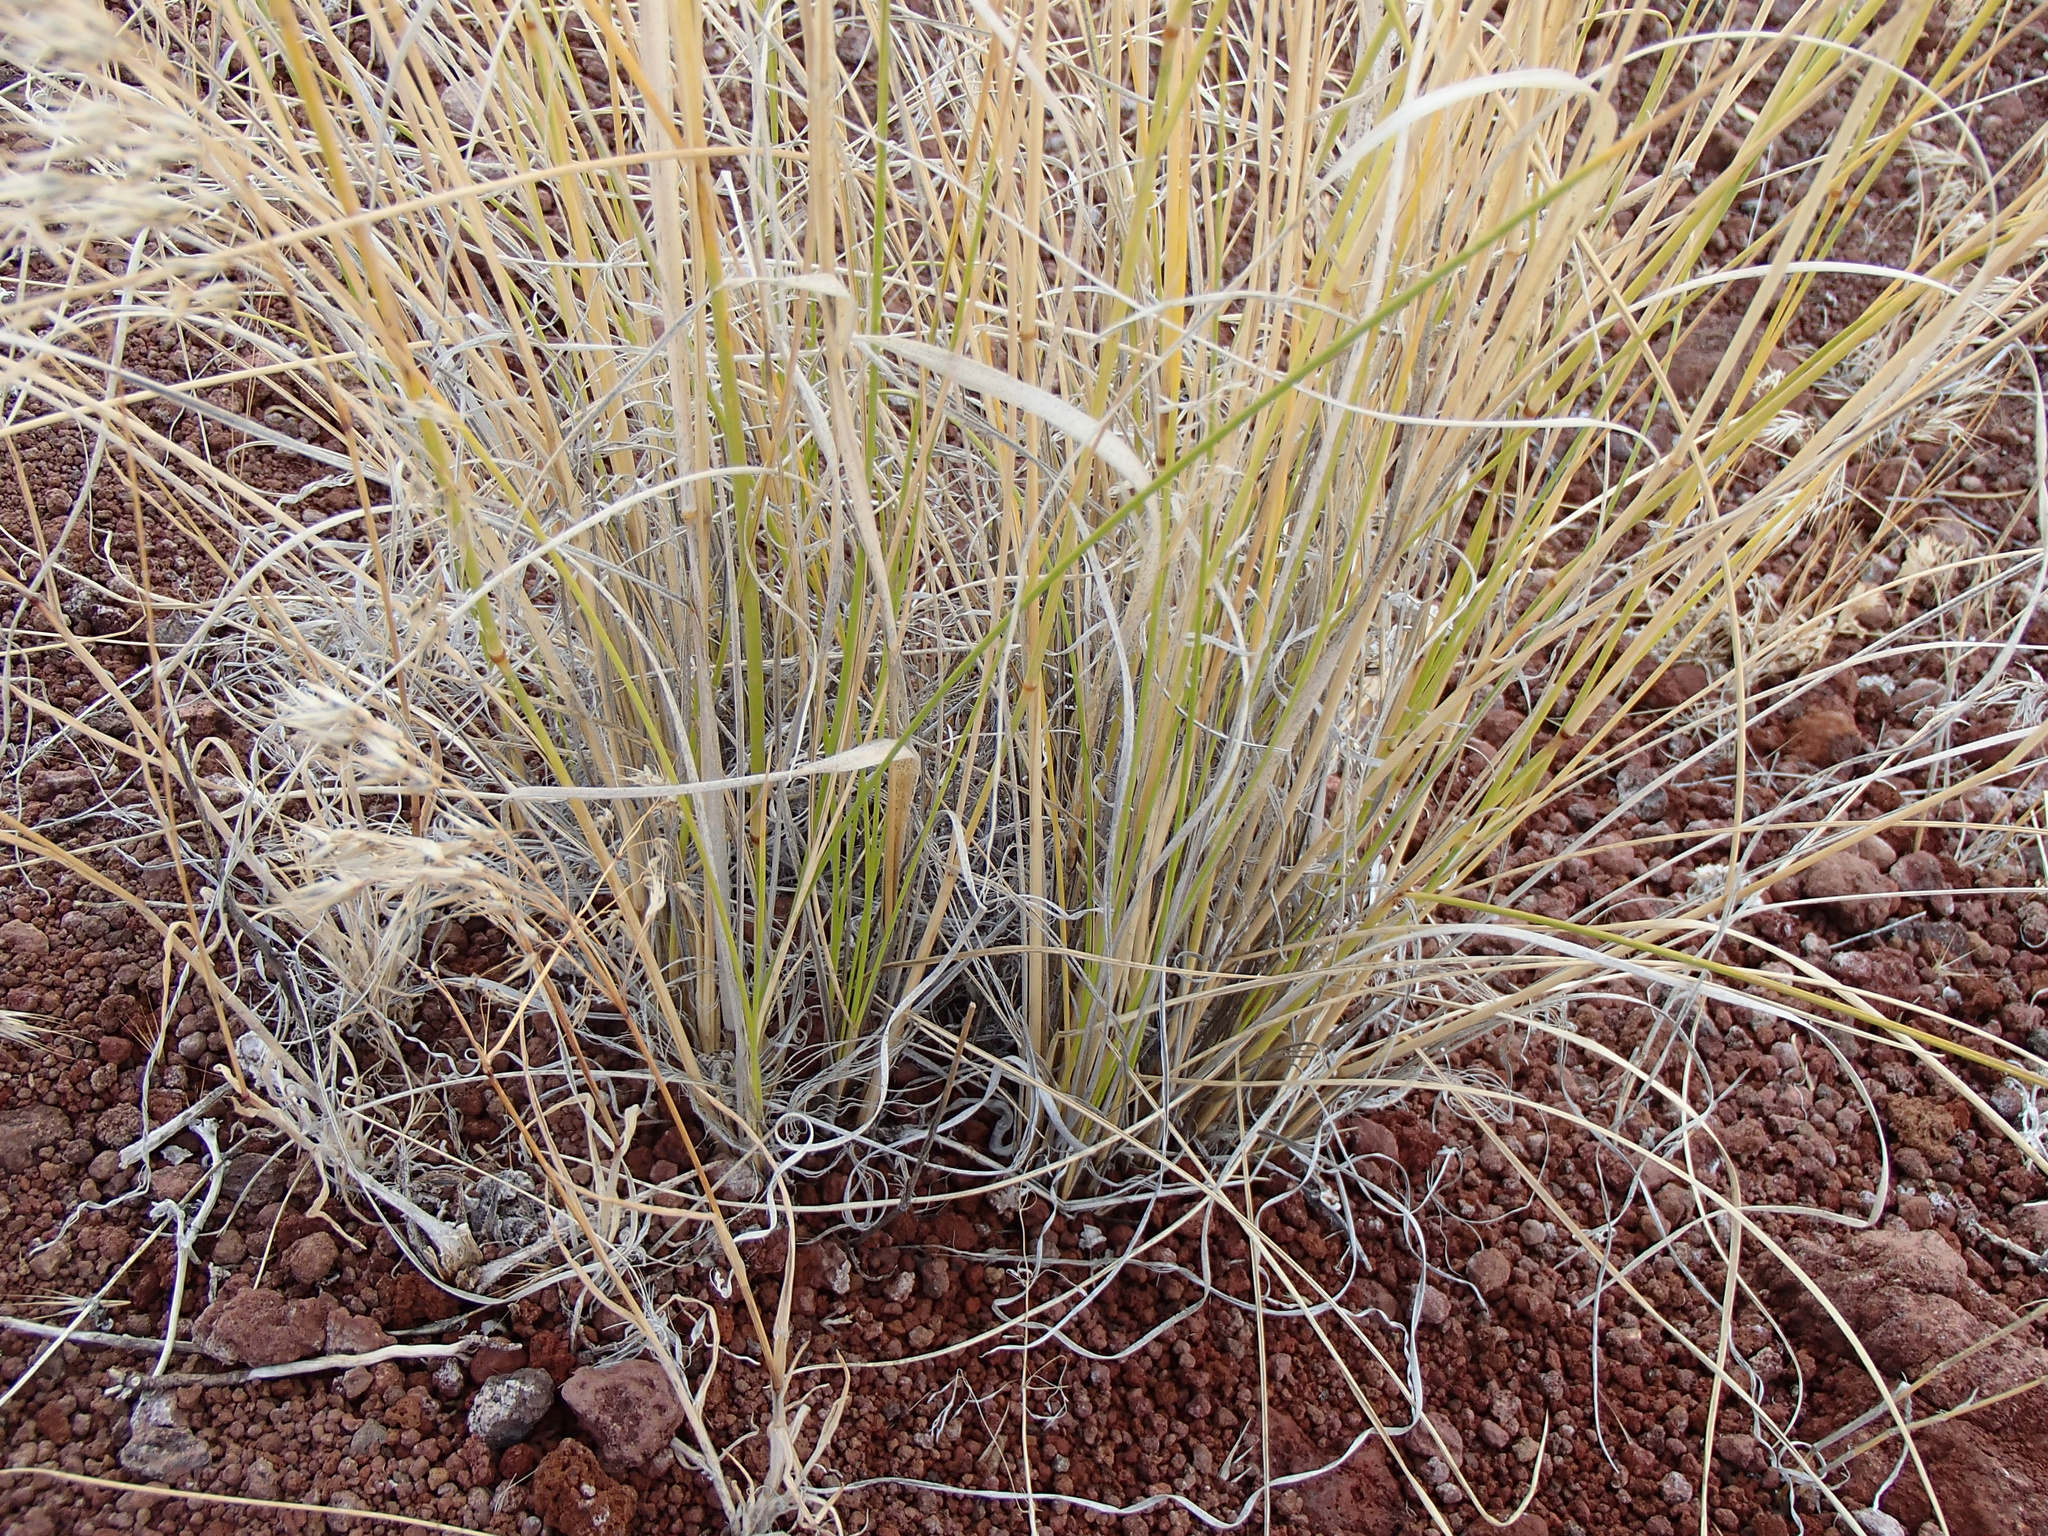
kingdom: Plantae
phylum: Tracheophyta
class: Liliopsida
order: Poales
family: Poaceae
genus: Eriocoma
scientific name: Eriocoma hymenoides
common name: Indian mountain ricegrass
